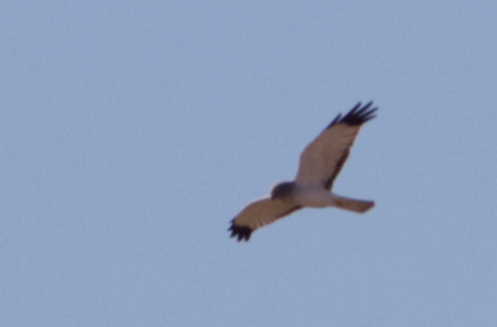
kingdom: Animalia
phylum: Chordata
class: Aves
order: Accipitriformes
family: Accipitridae
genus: Circus
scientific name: Circus cyaneus
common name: Hen harrier
